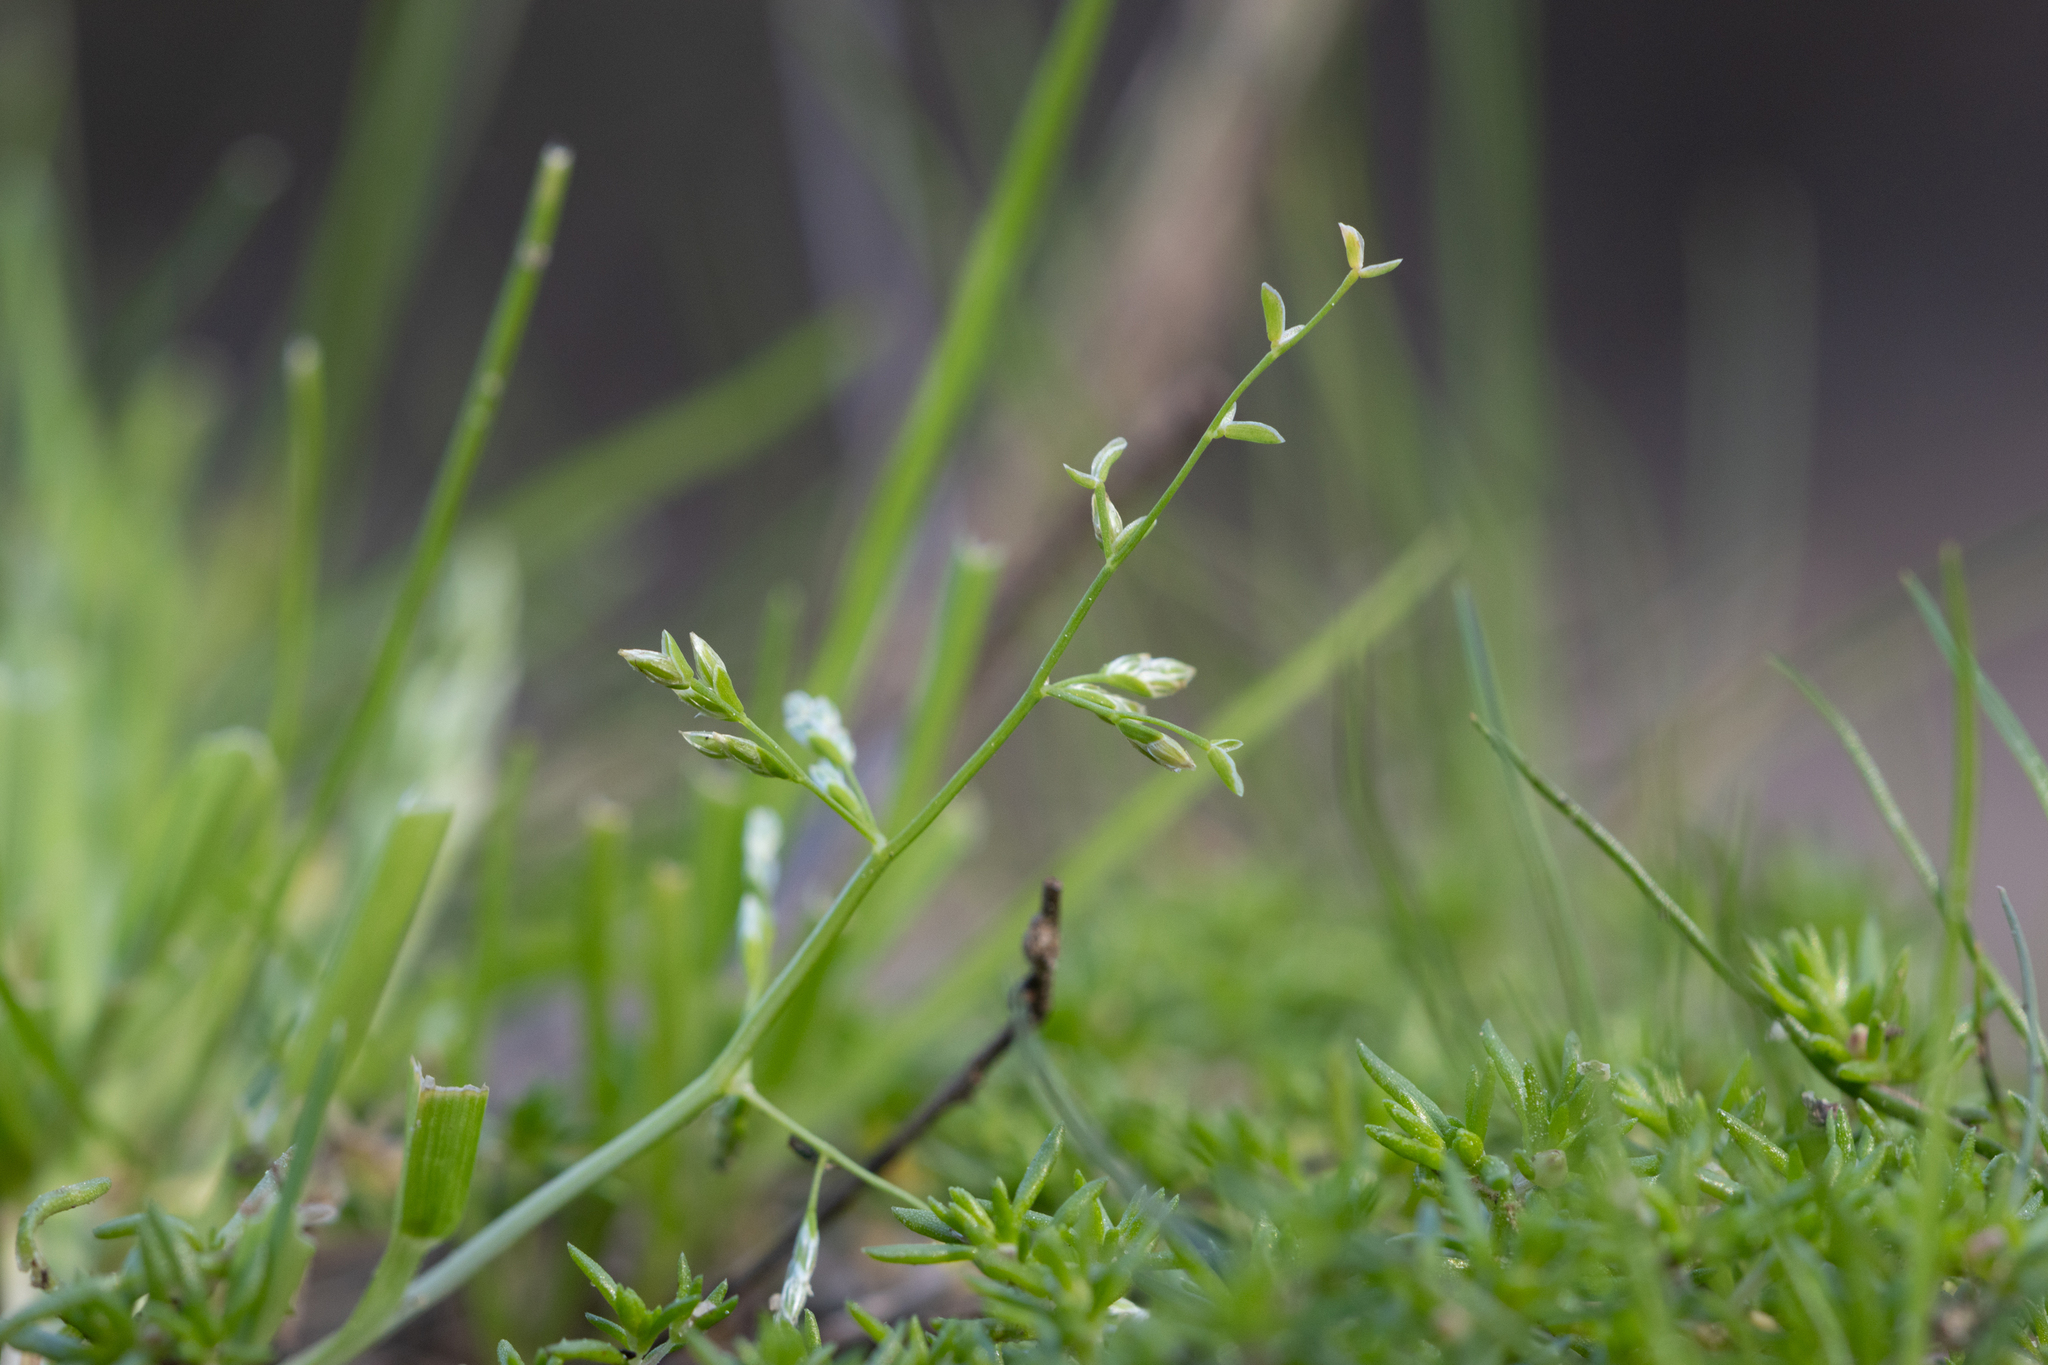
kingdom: Plantae
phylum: Tracheophyta
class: Liliopsida
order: Poales
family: Poaceae
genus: Poa
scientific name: Poa annua
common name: Annual bluegrass
